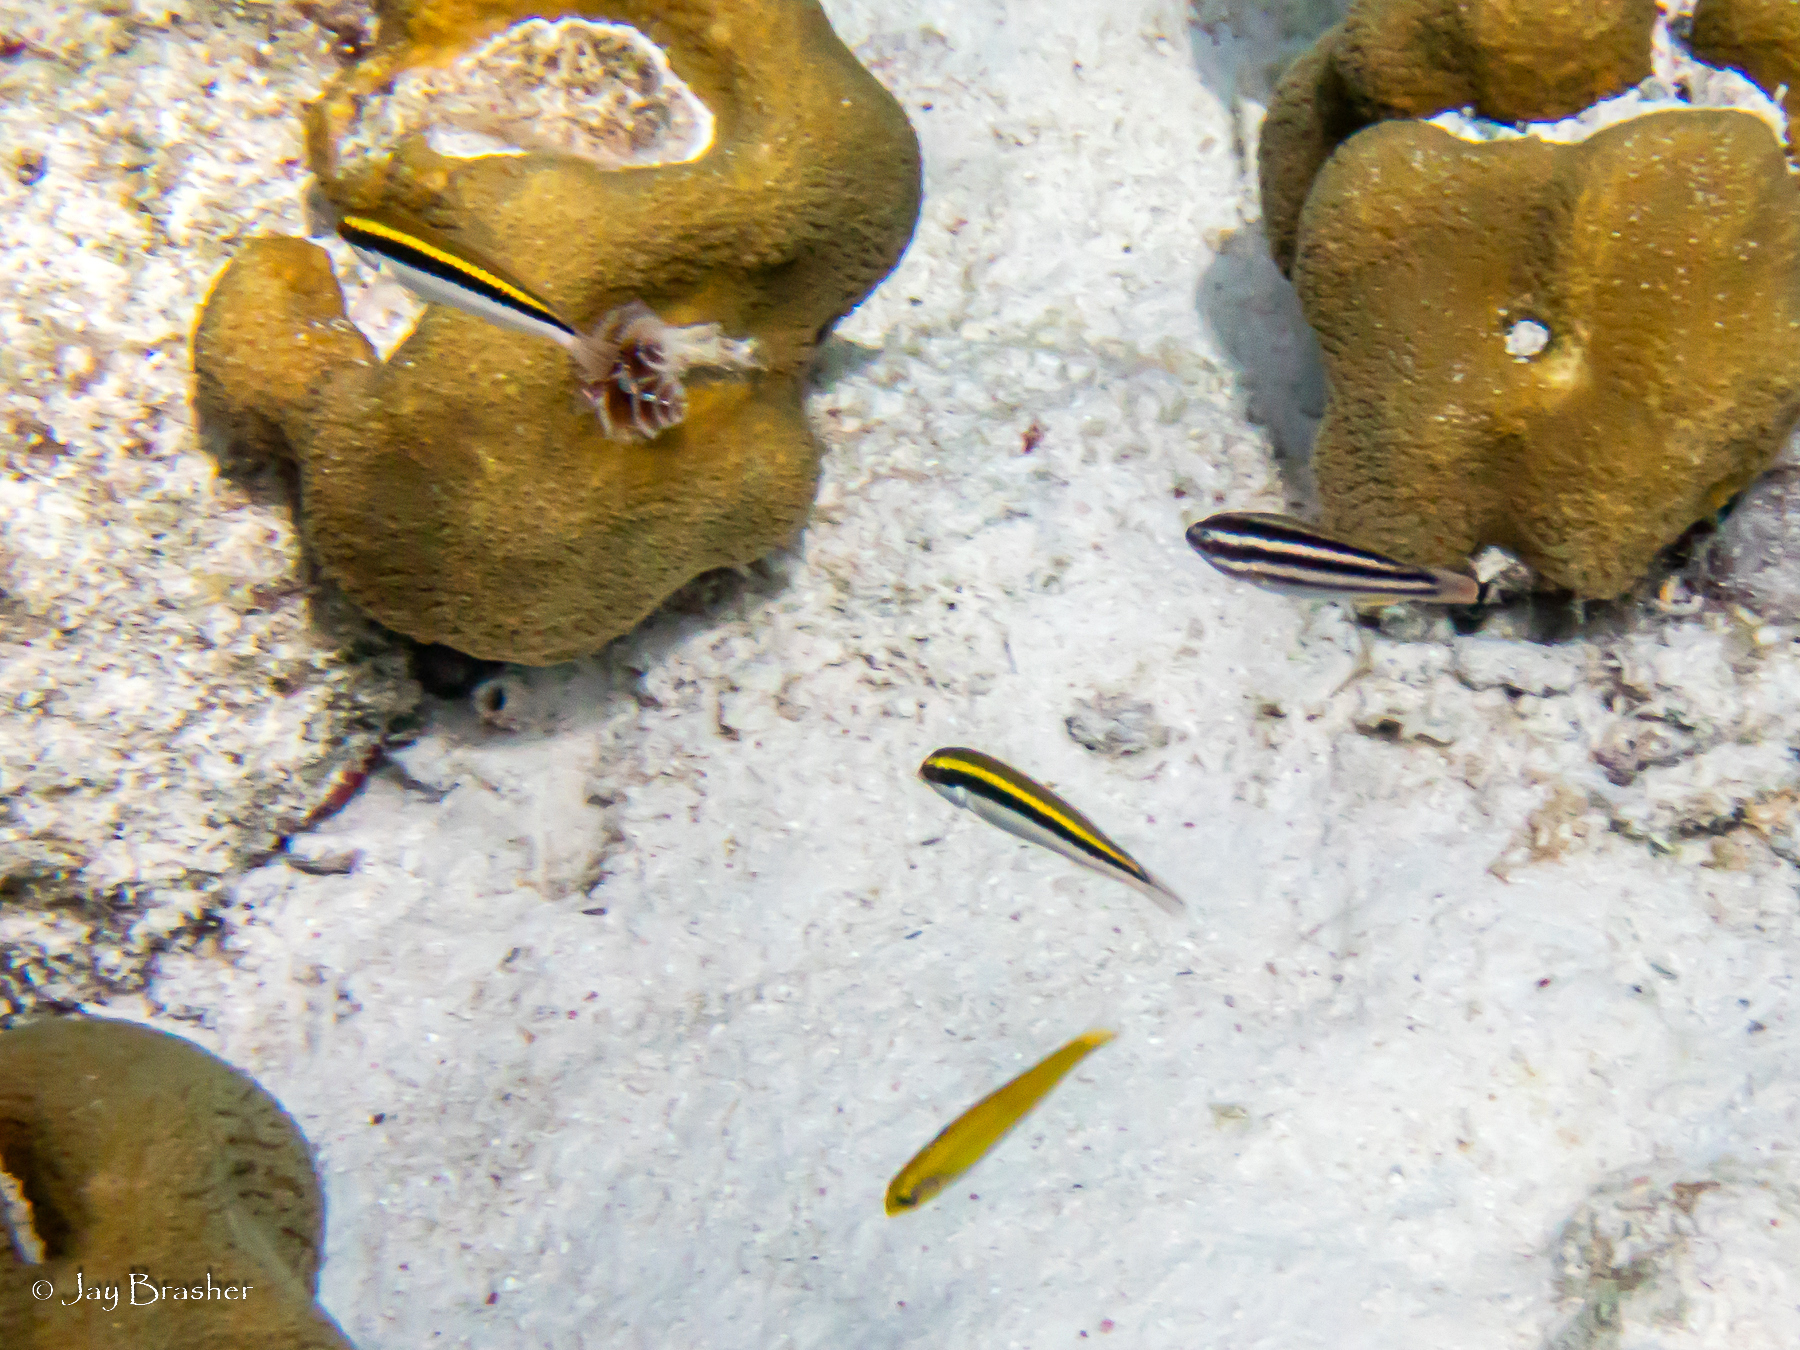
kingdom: Animalia
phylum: Chordata
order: Perciformes
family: Labridae
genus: Halichoeres
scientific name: Halichoeres maculipinna
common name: Clown wrasse
